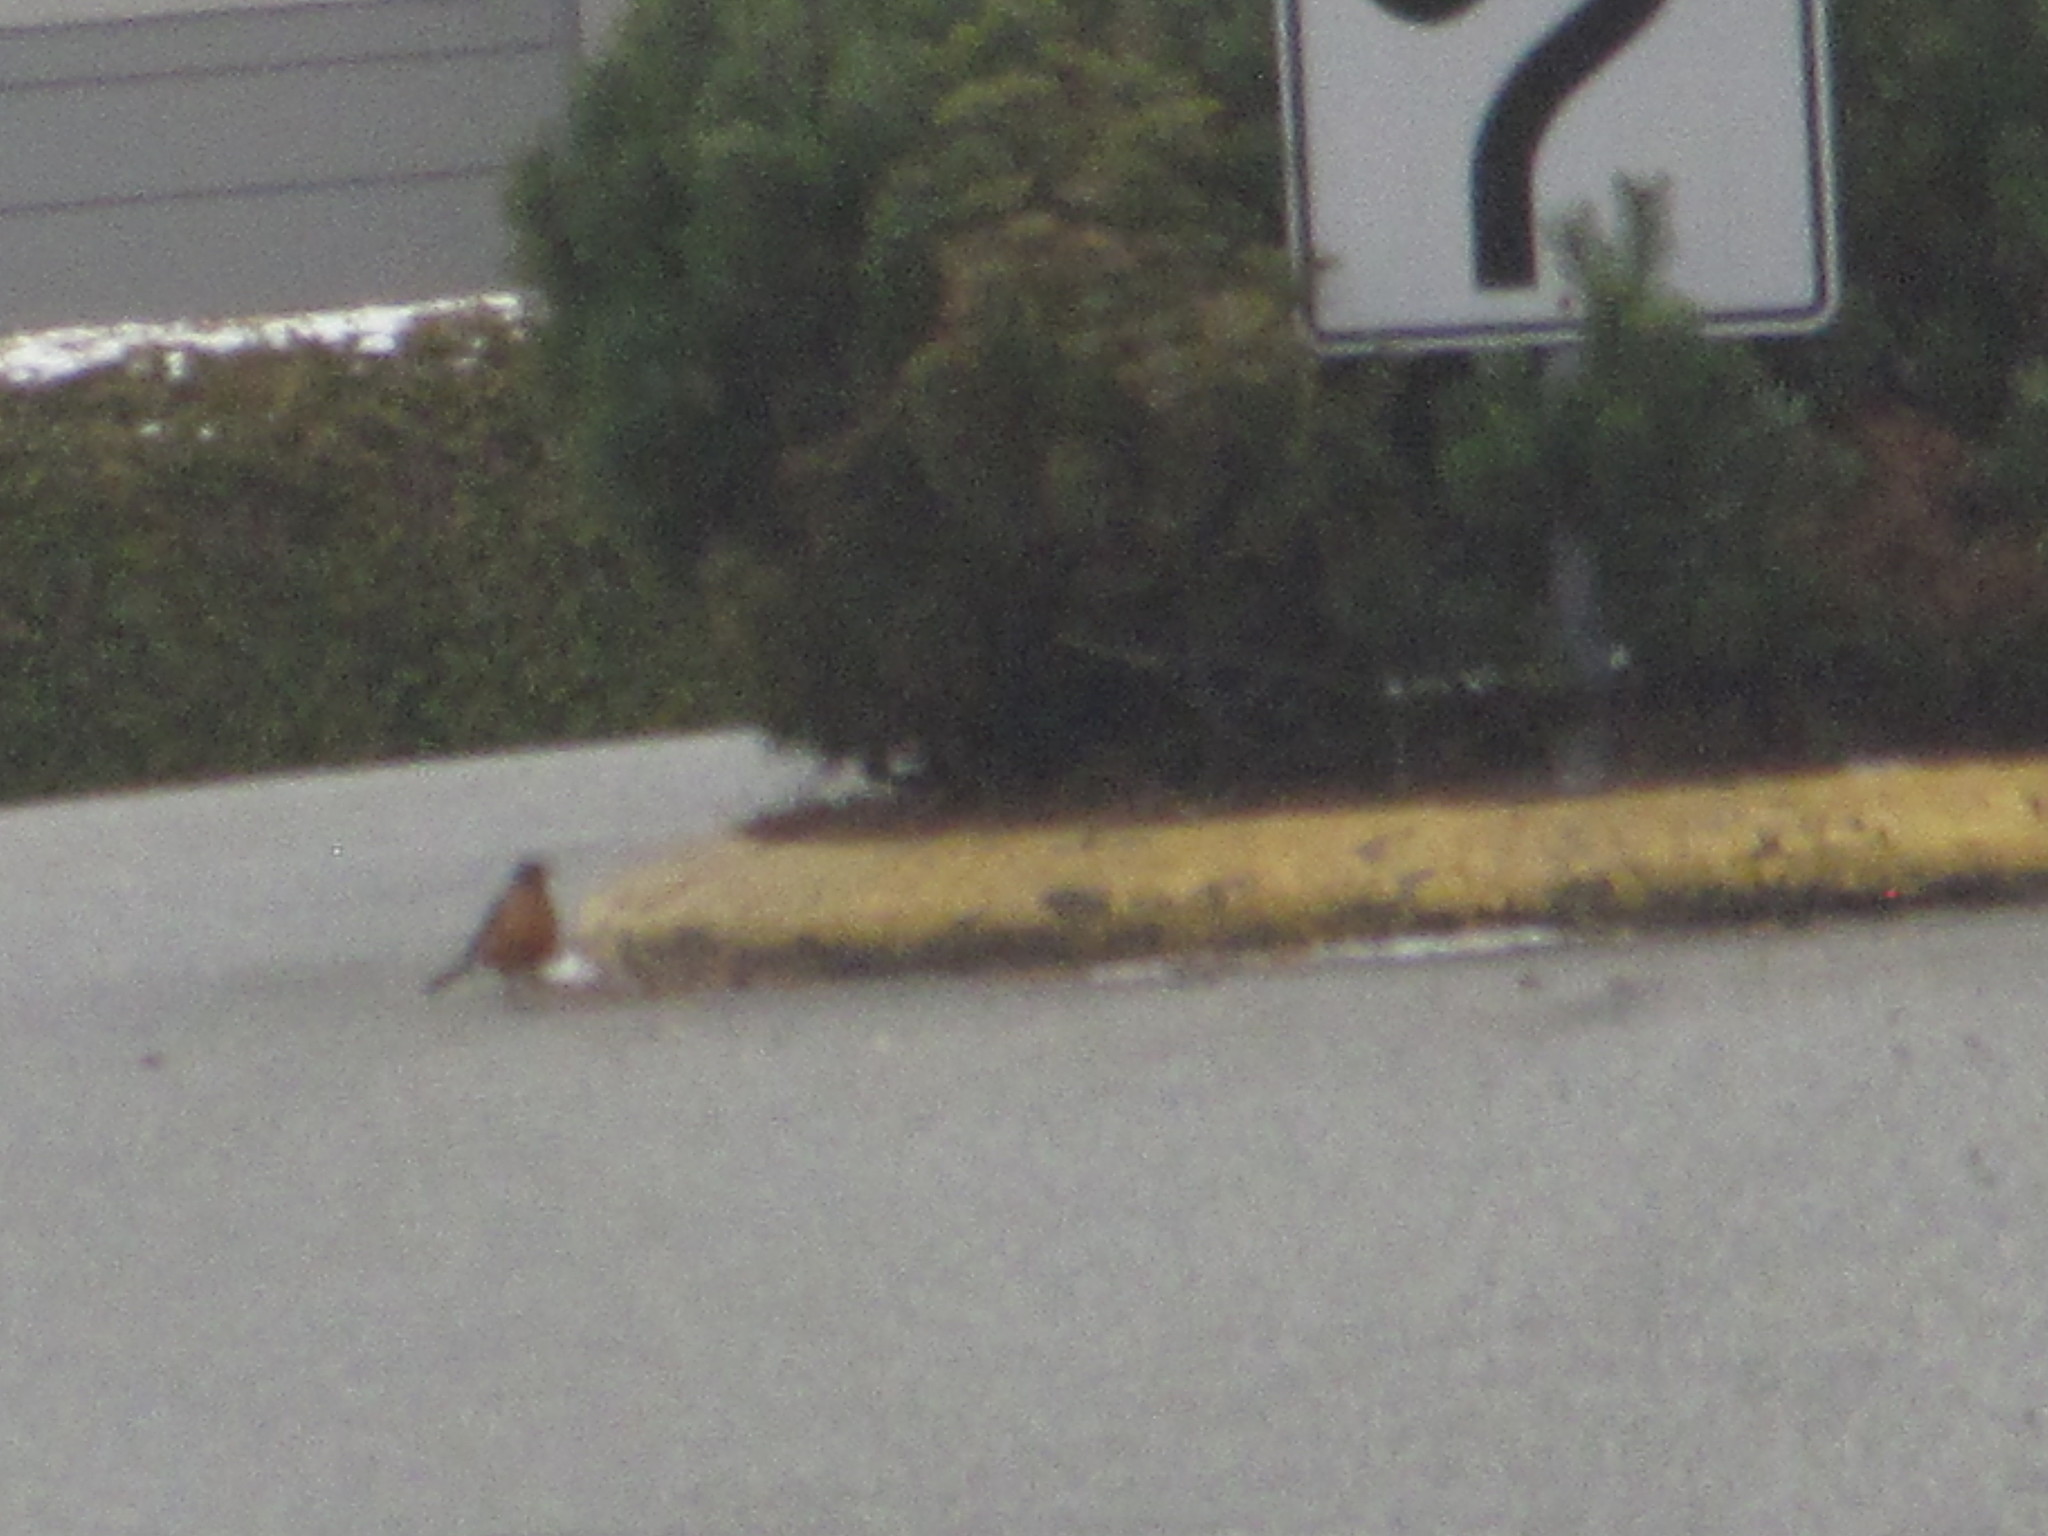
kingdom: Animalia
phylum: Chordata
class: Aves
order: Passeriformes
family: Turdidae
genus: Turdus
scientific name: Turdus migratorius
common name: American robin
